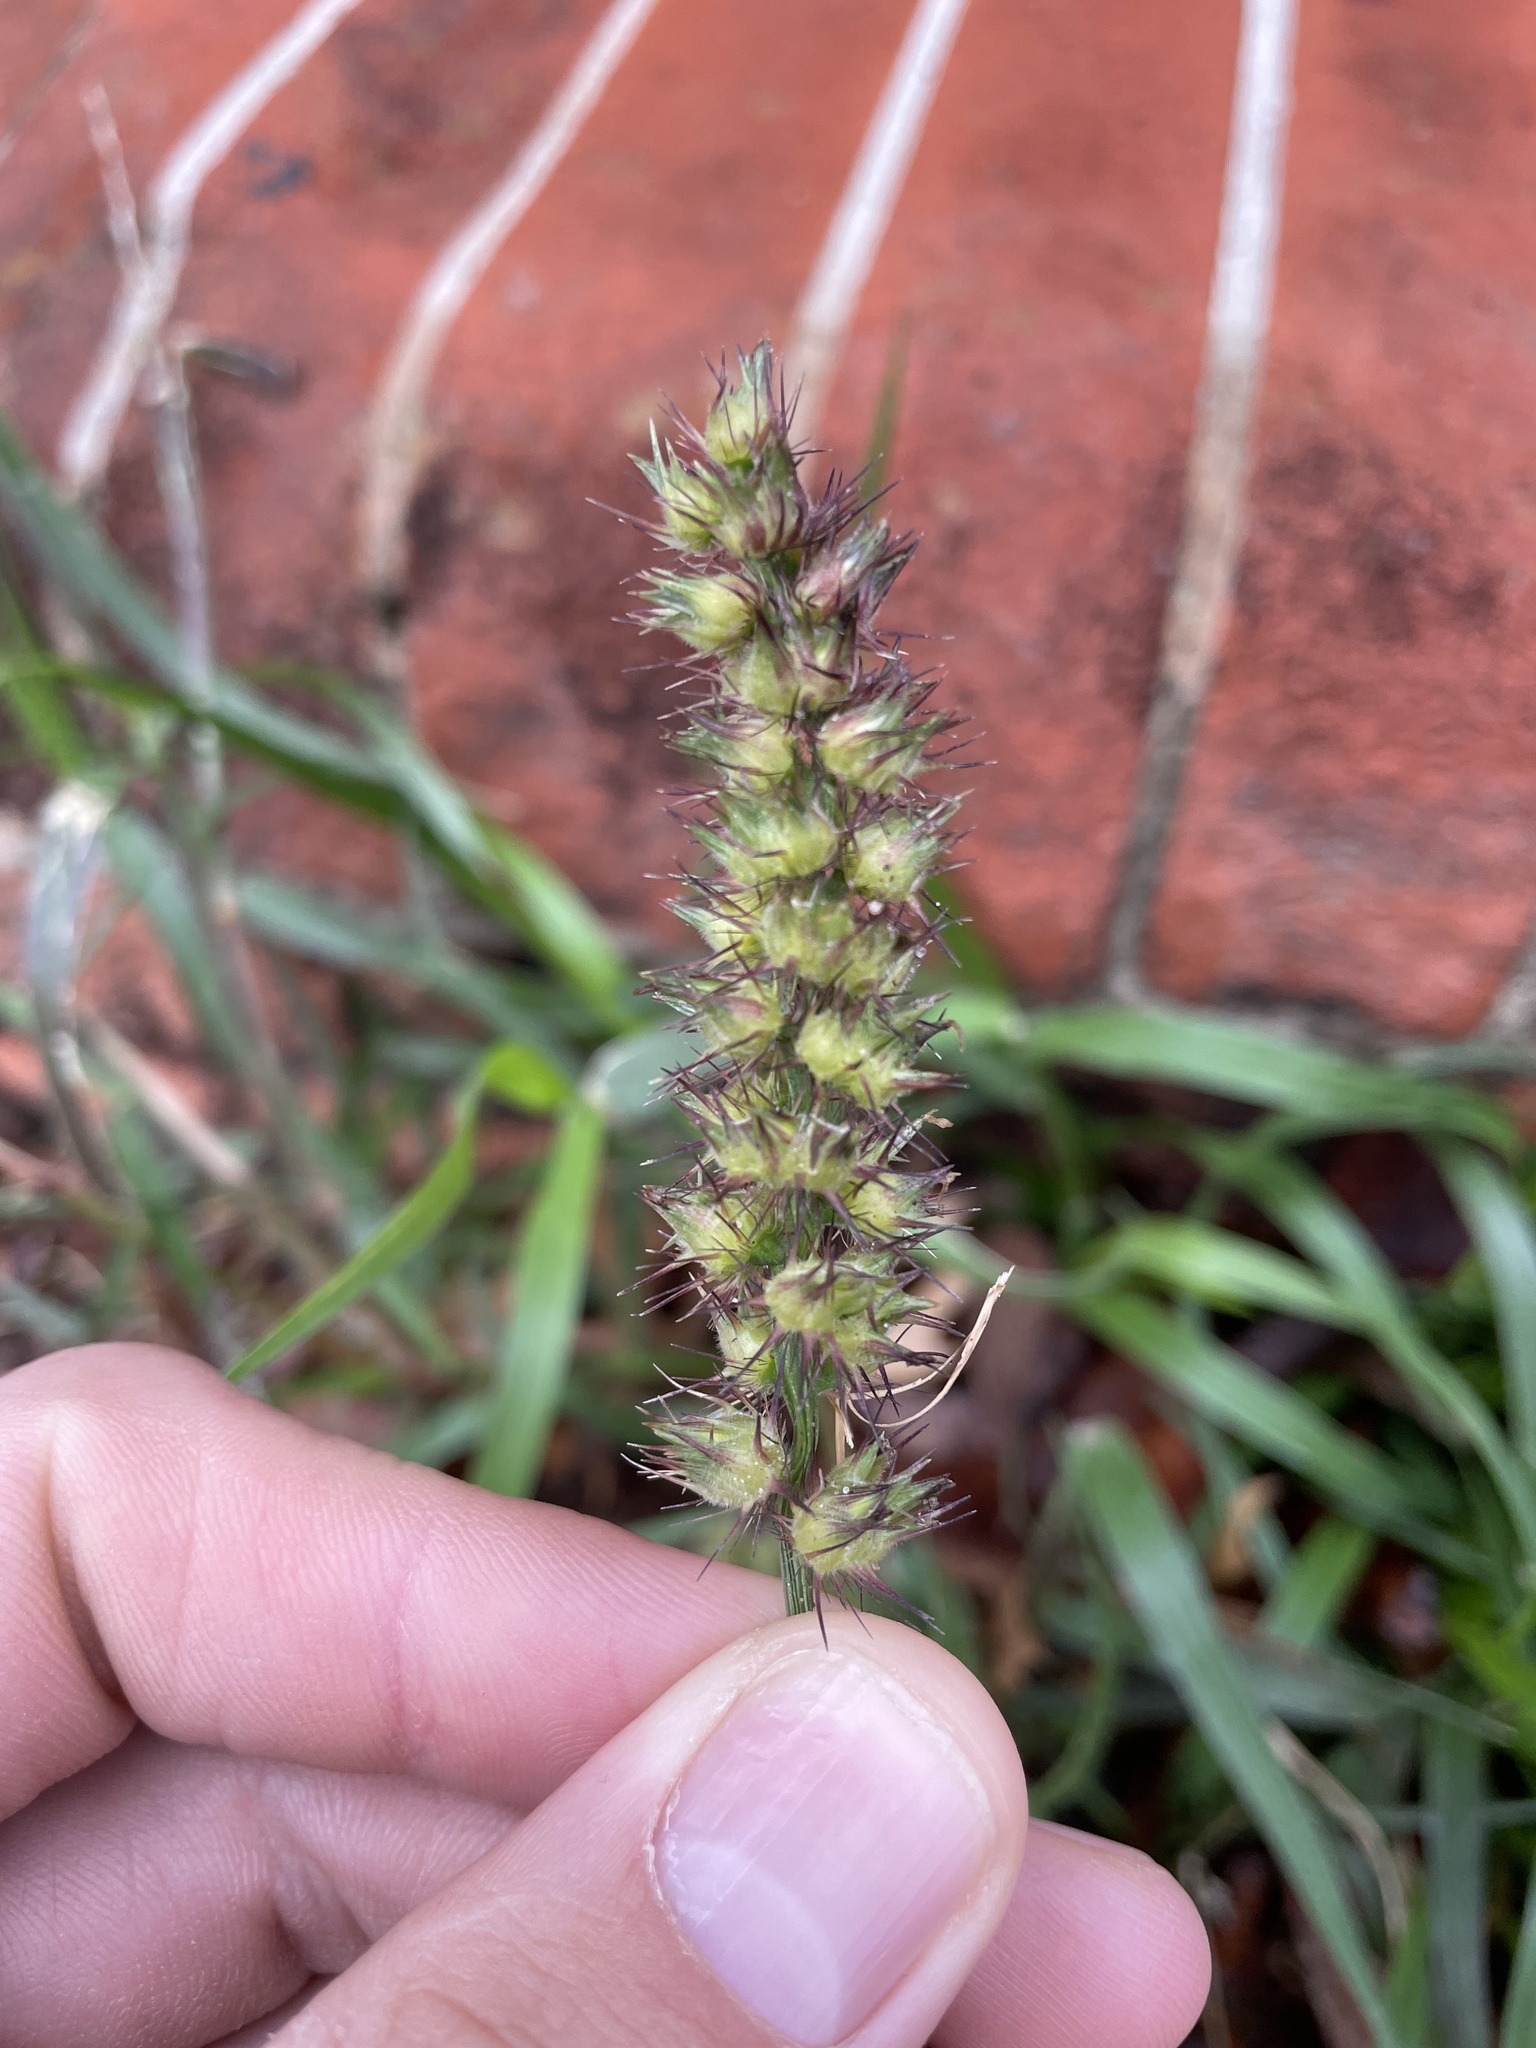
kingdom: Plantae
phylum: Tracheophyta
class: Liliopsida
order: Poales
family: Poaceae
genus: Cenchrus
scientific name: Cenchrus echinatus
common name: Southern sandbur
